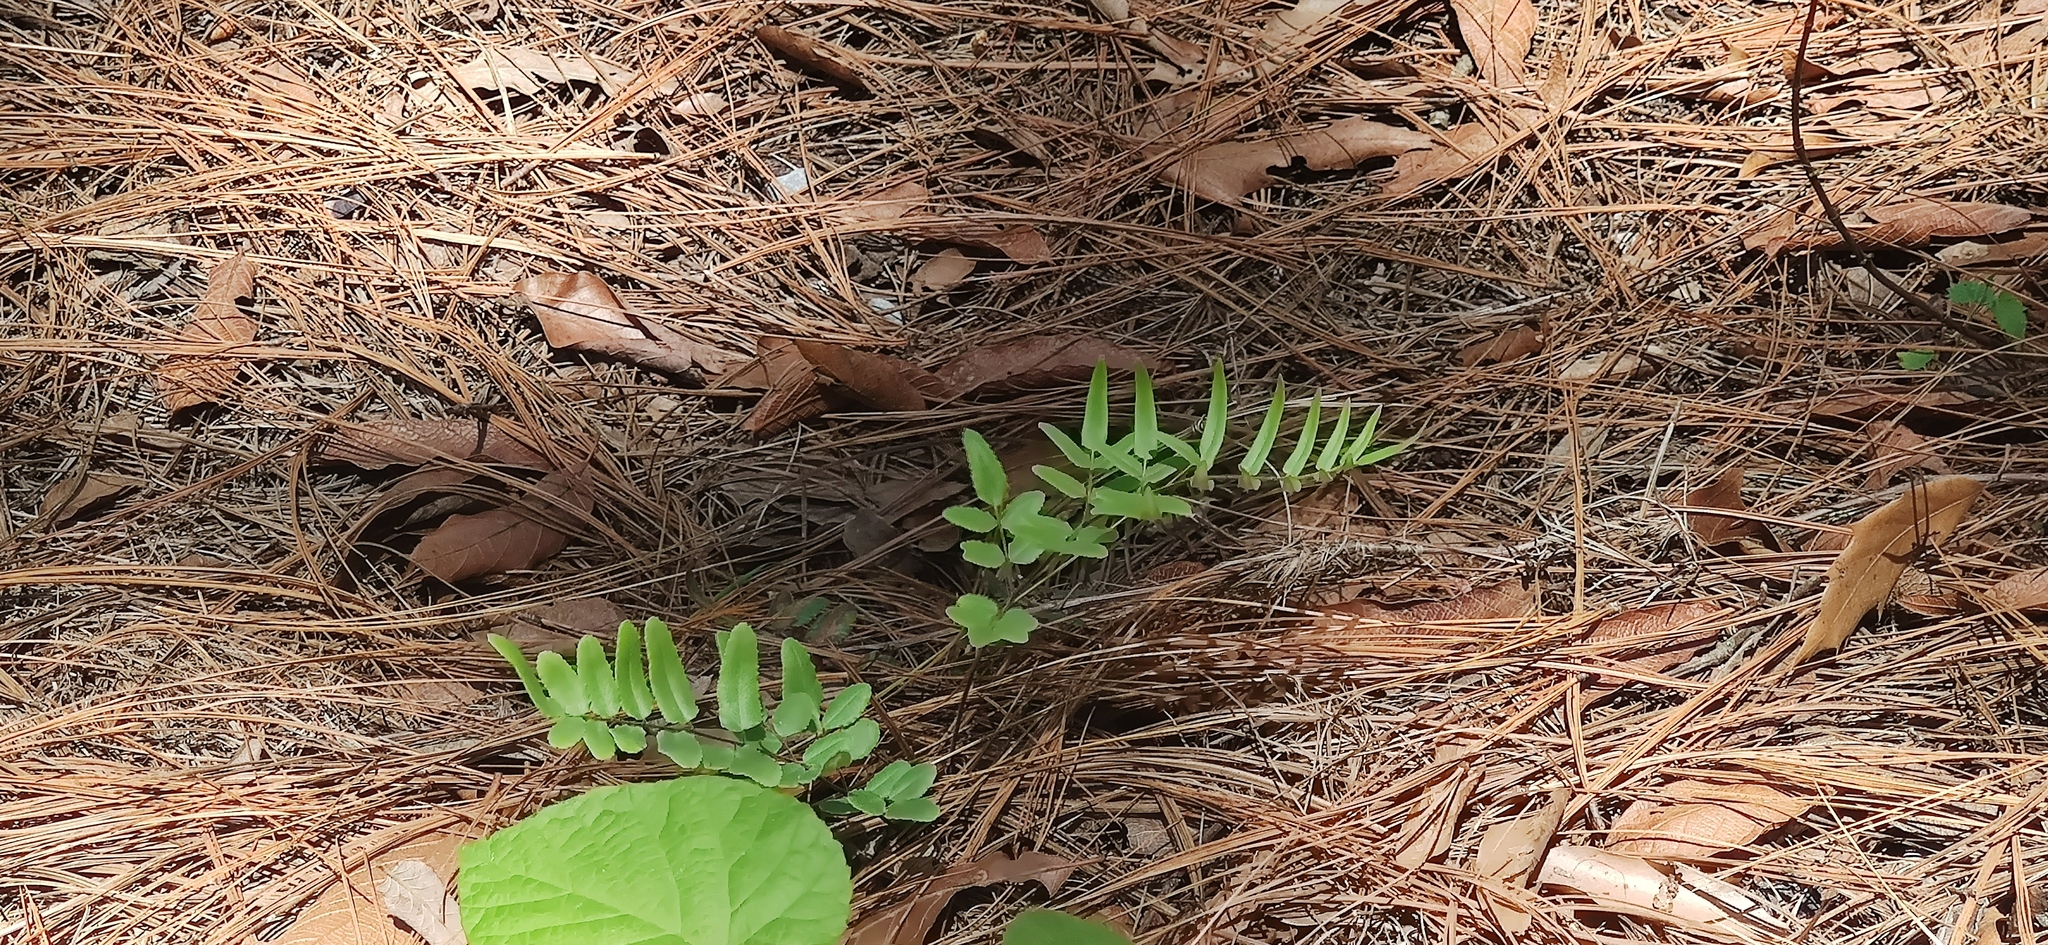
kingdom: Plantae
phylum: Tracheophyta
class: Polypodiopsida
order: Polypodiales
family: Pteridaceae
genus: Pellaea
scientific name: Pellaea atropurpurea
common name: Hairy cliffbrake
